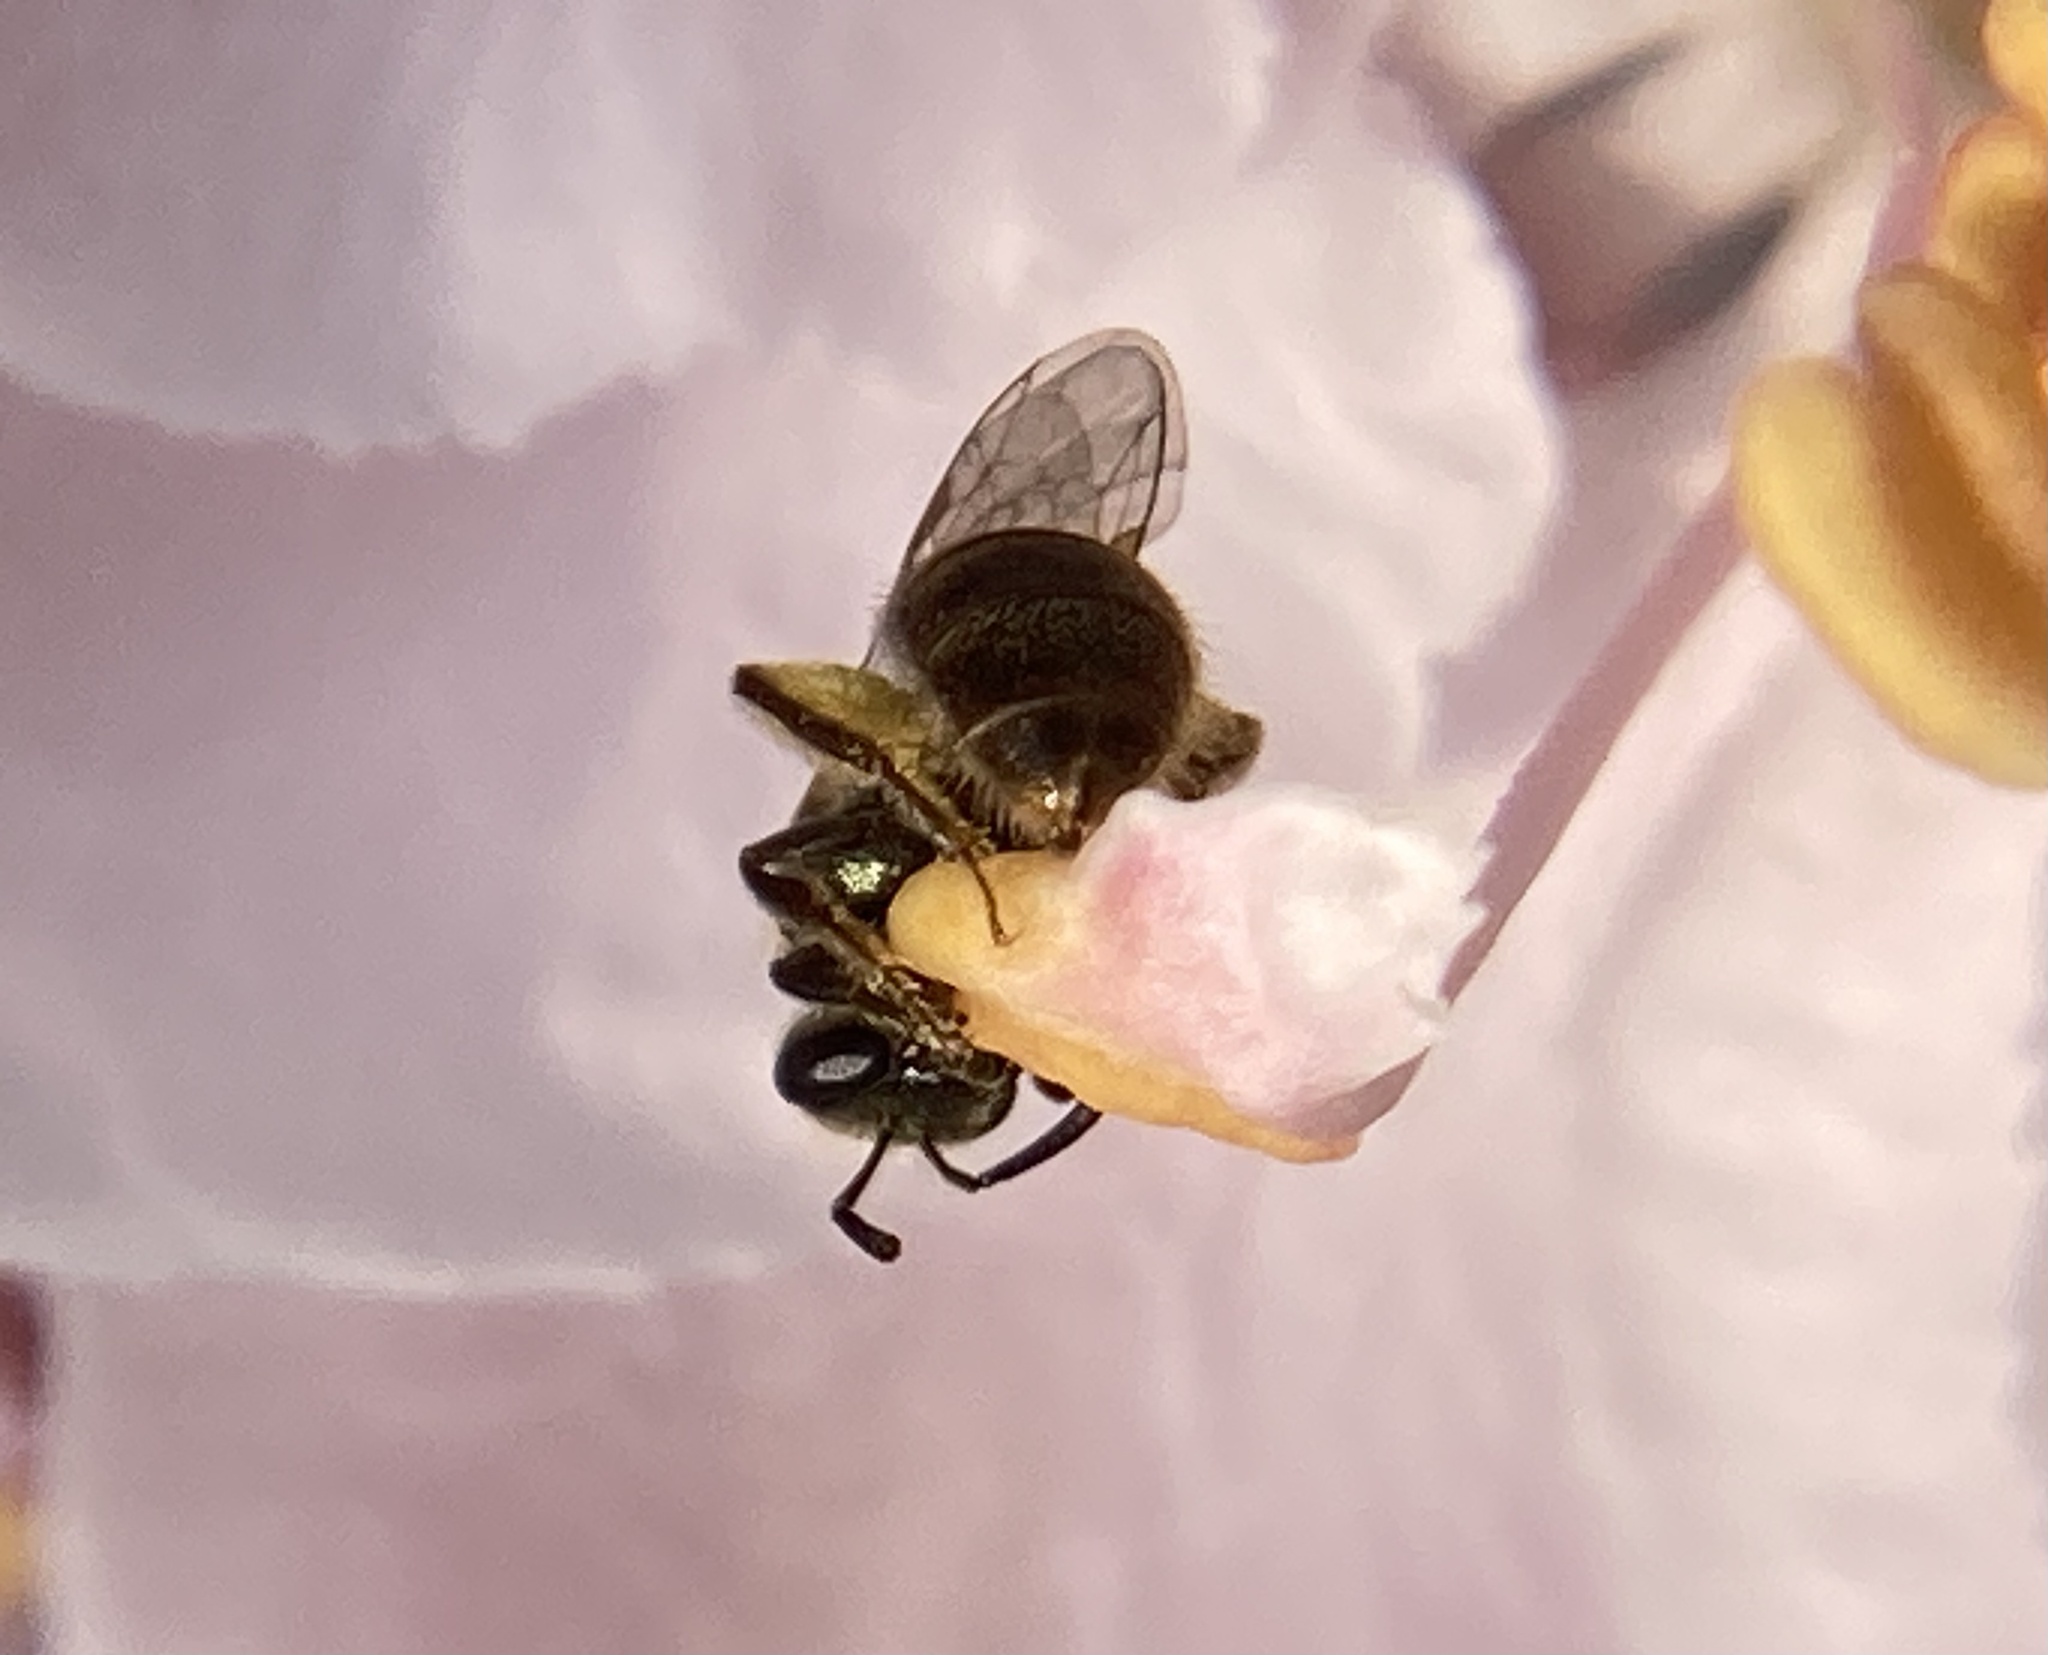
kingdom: Animalia
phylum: Arthropoda
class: Insecta
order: Hymenoptera
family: Halictidae
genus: Dialictus
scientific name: Dialictus
